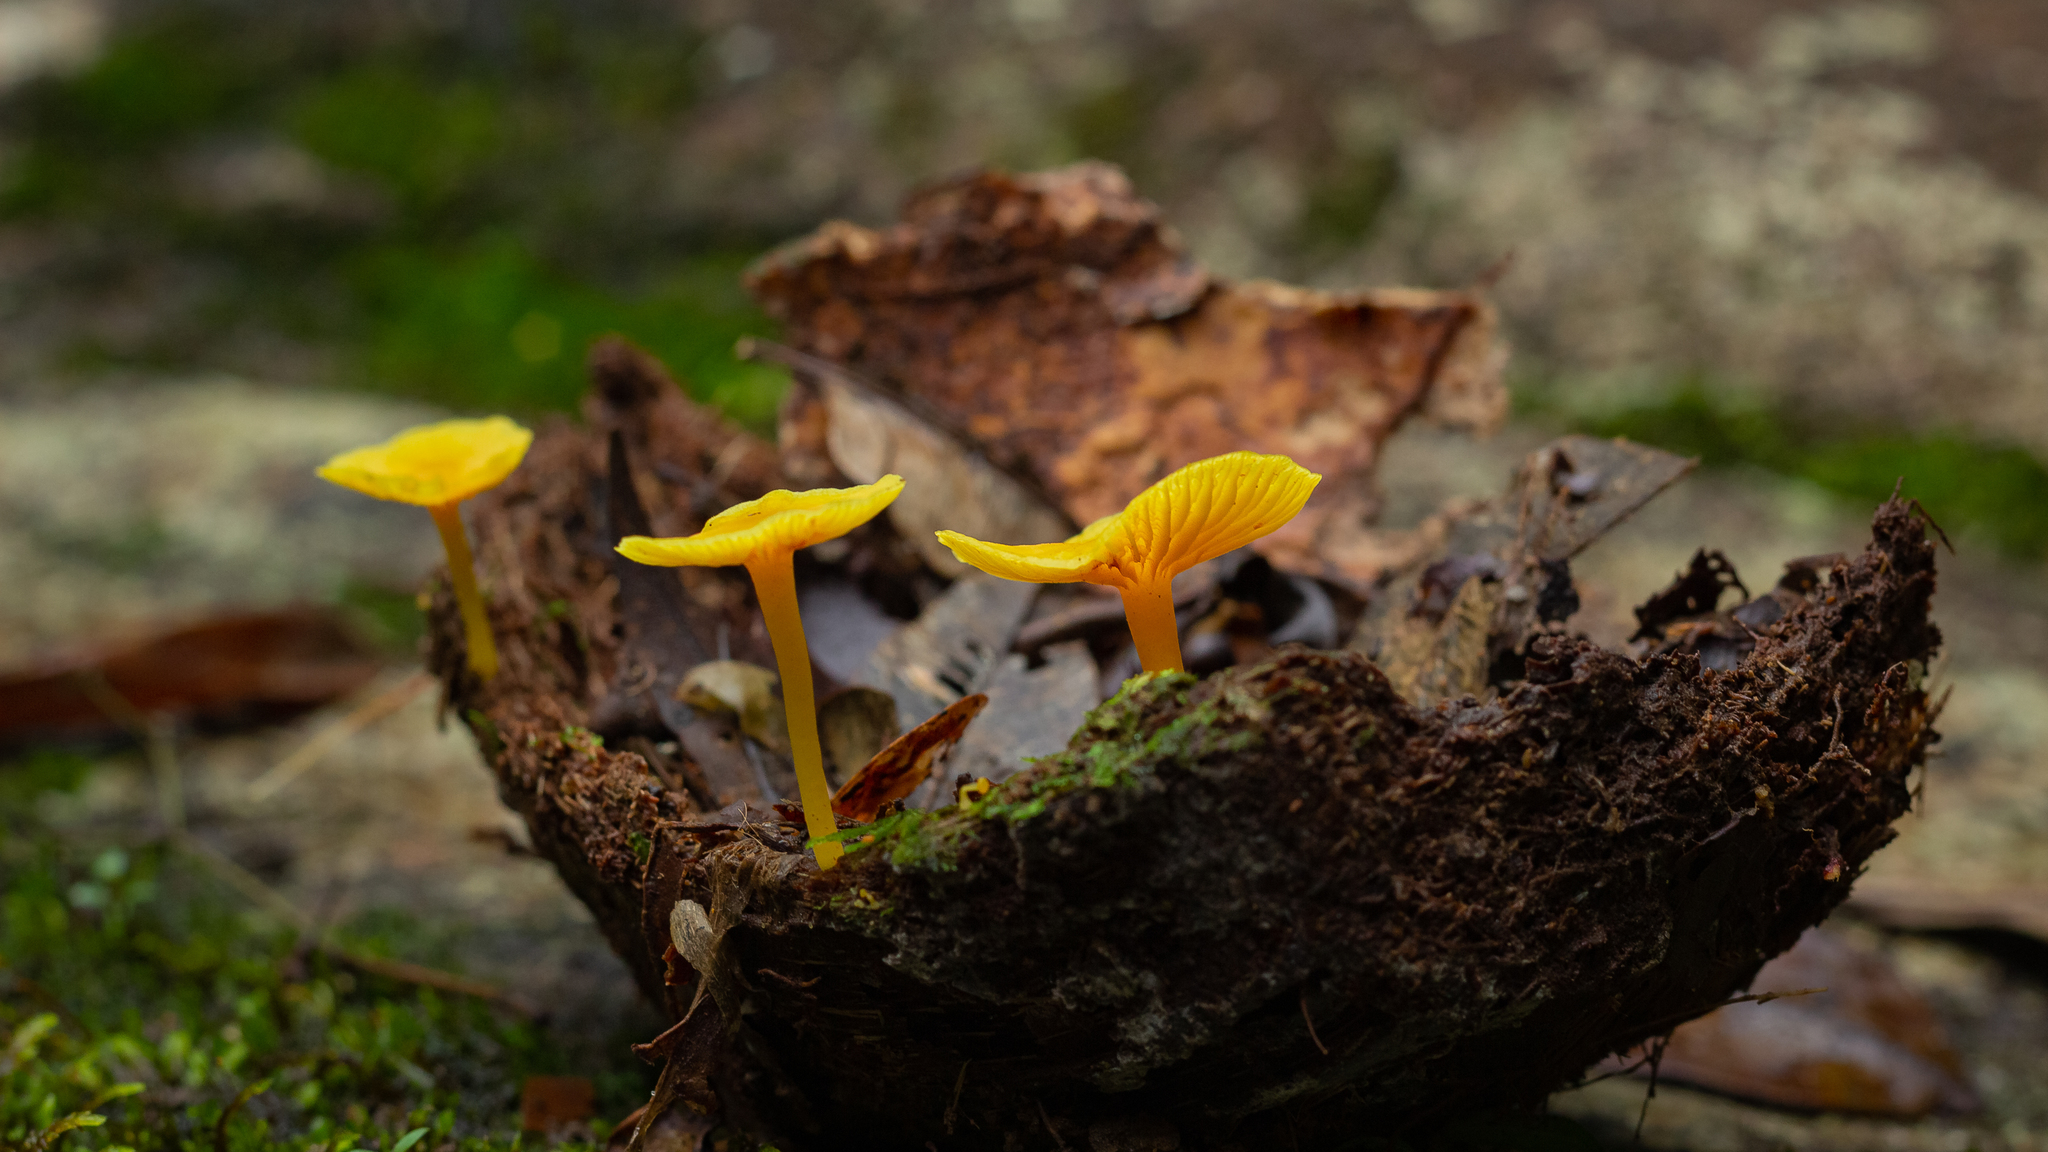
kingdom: Fungi
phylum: Basidiomycota
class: Agaricomycetes
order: Agaricales
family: Marasmiaceae
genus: Marasmius
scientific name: Marasmius rhyssophyllus
